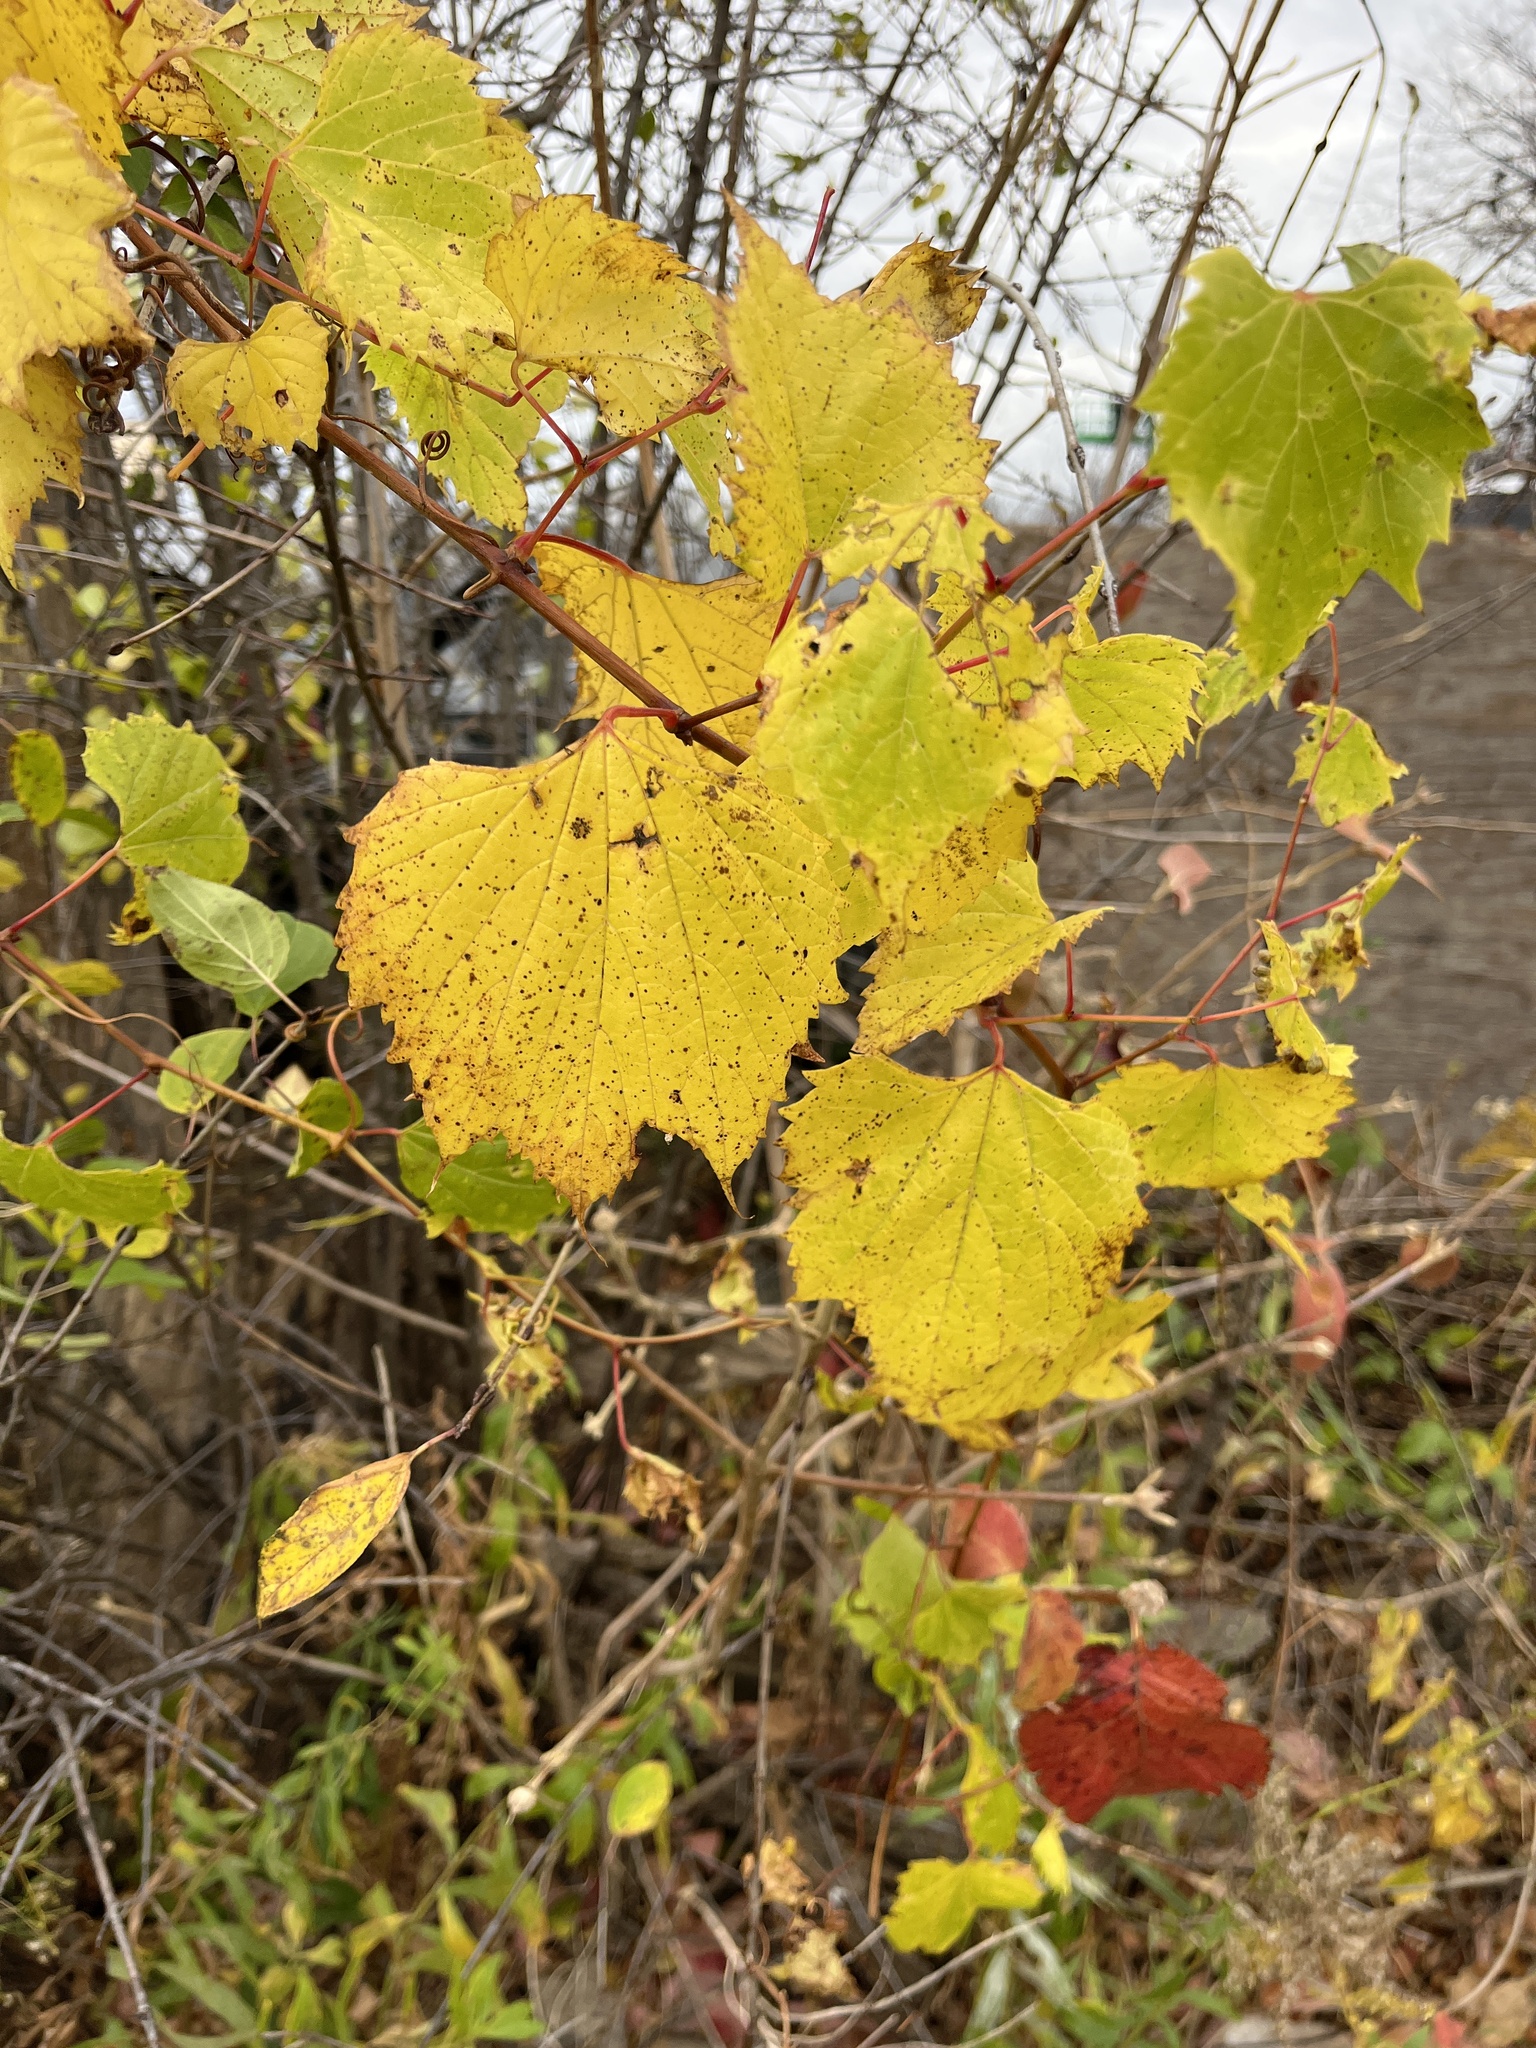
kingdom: Plantae
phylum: Tracheophyta
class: Magnoliopsida
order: Vitales
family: Vitaceae
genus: Vitis
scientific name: Vitis riparia
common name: Frost grape
